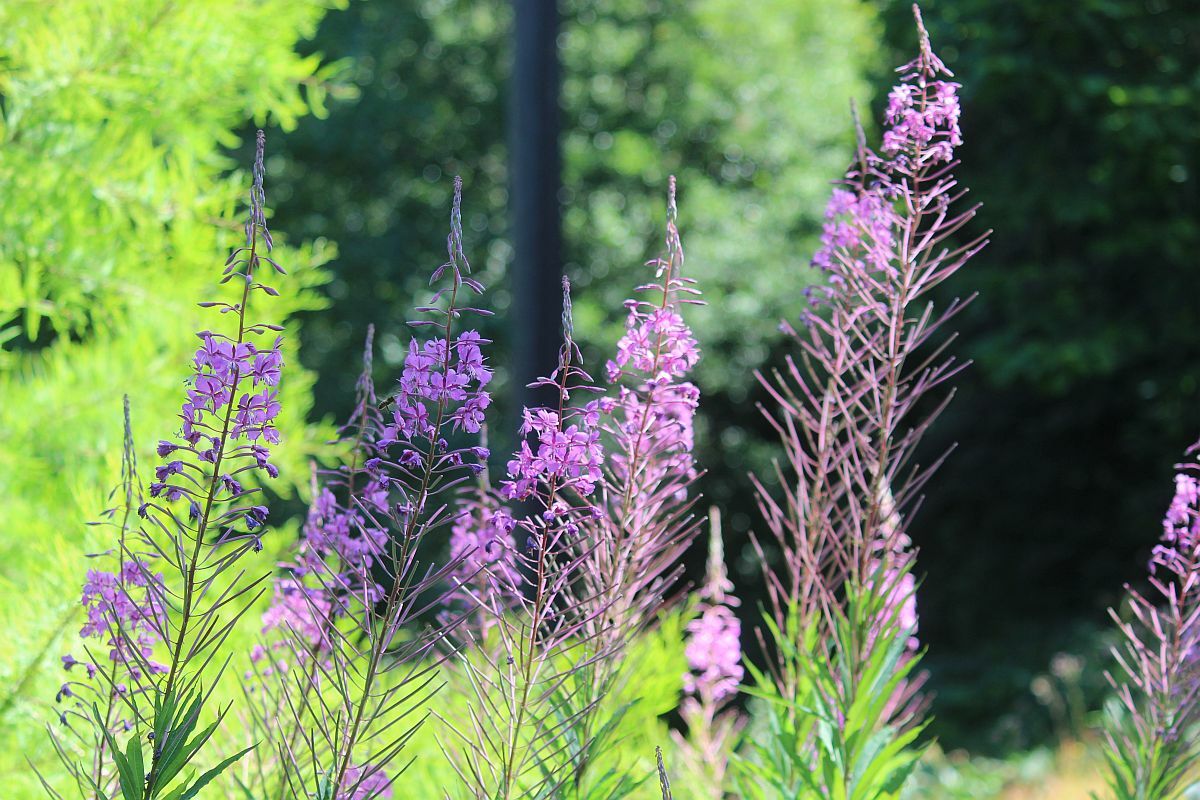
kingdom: Plantae
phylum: Tracheophyta
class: Magnoliopsida
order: Myrtales
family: Onagraceae
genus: Chamaenerion
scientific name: Chamaenerion angustifolium
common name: Fireweed
